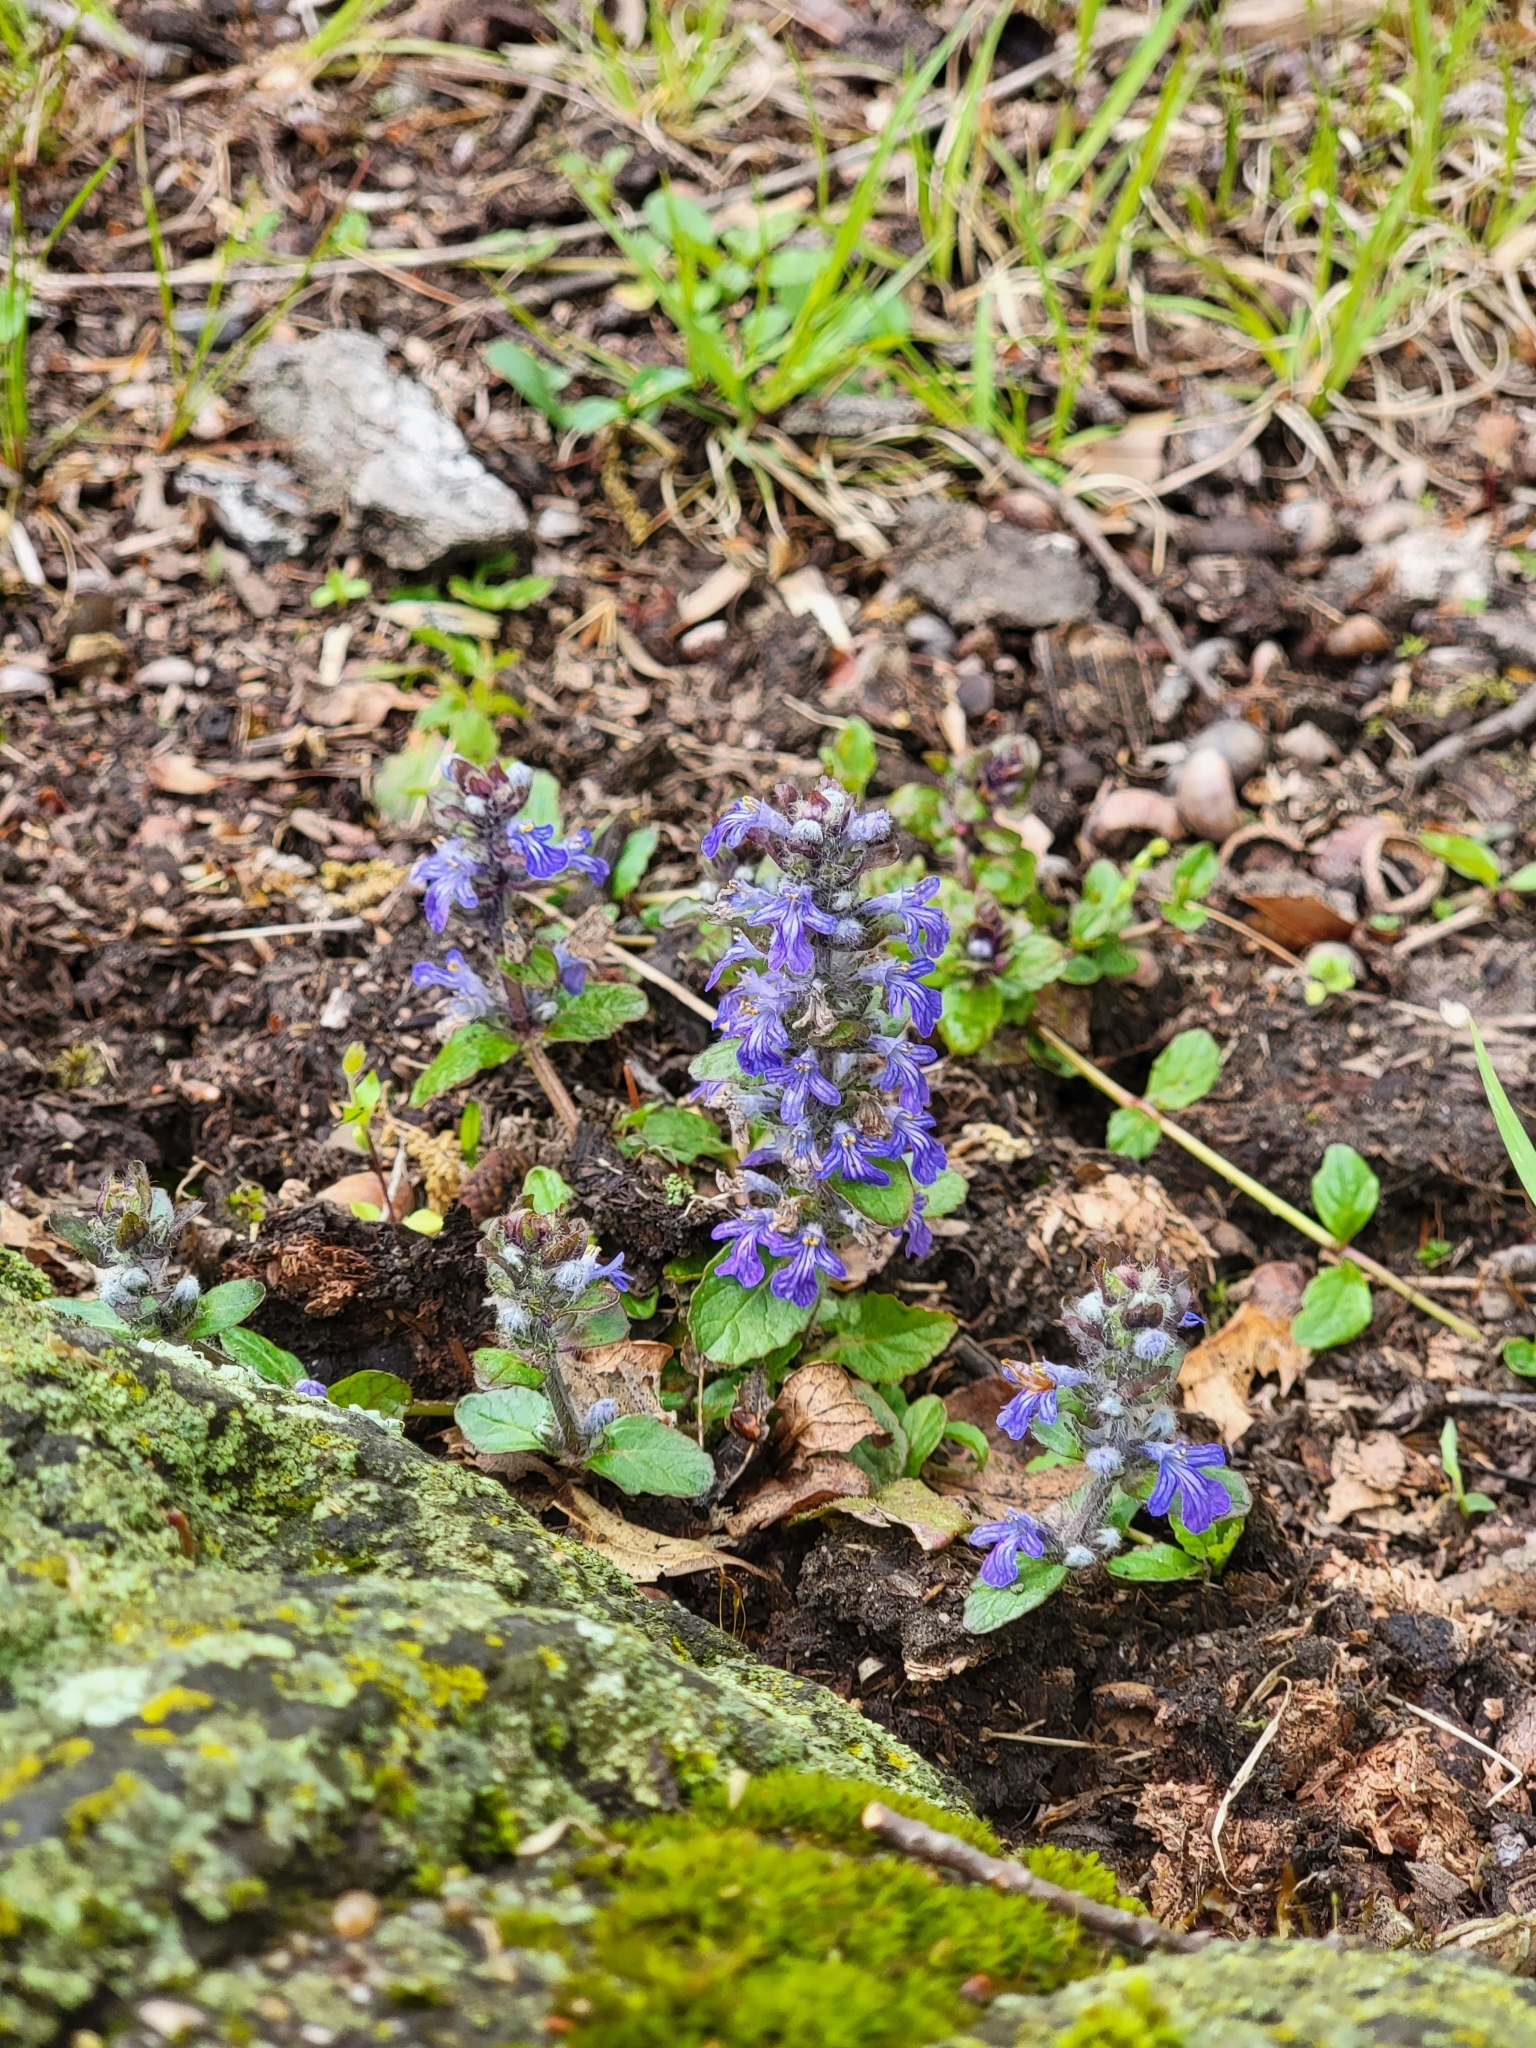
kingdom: Plantae
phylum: Tracheophyta
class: Magnoliopsida
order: Lamiales
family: Lamiaceae
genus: Ajuga
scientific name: Ajuga reptans
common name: Bugle
